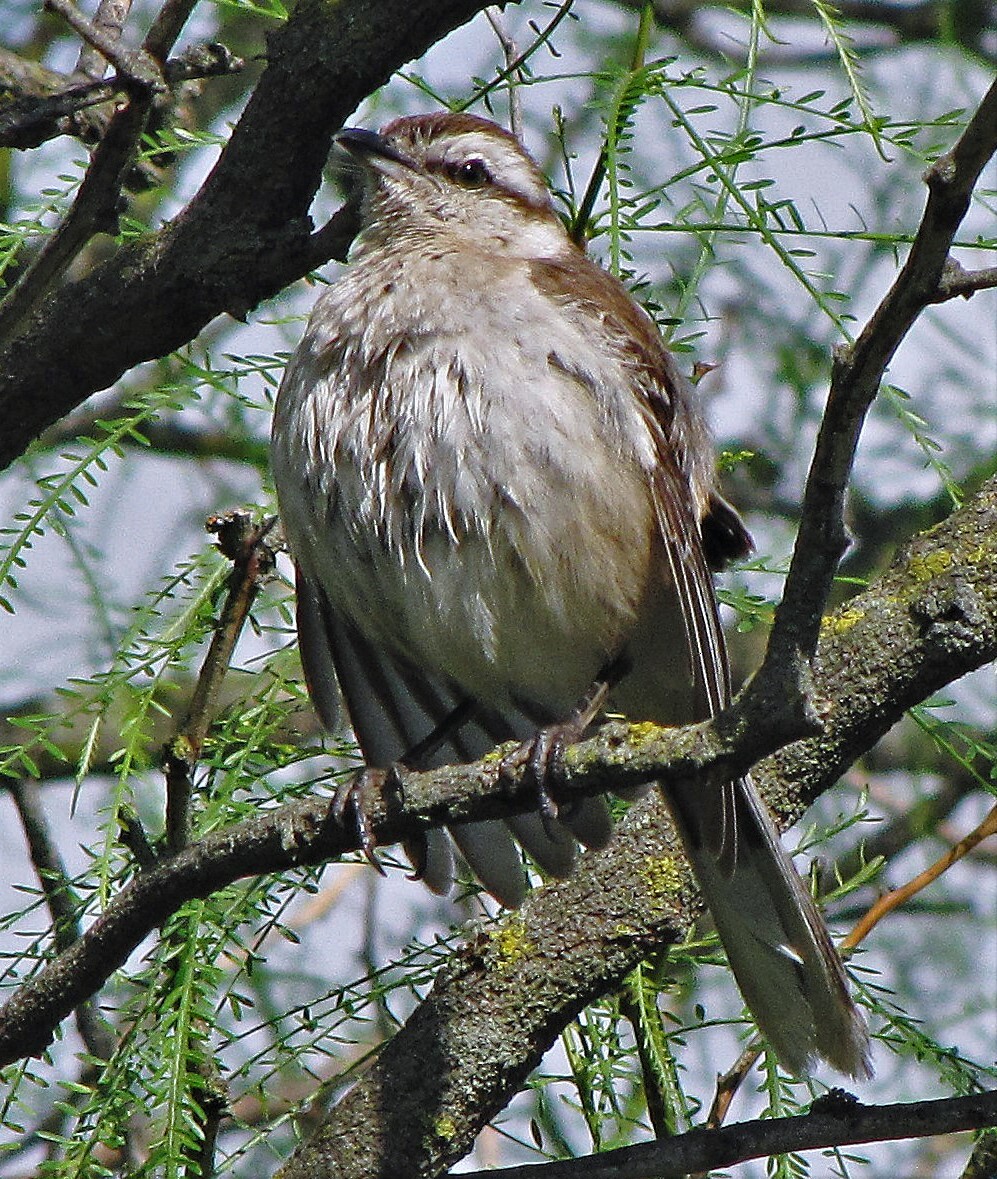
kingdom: Animalia
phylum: Chordata
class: Aves
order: Passeriformes
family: Mimidae
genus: Mimus
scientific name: Mimus saturninus
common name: Chalk-browed mockingbird
